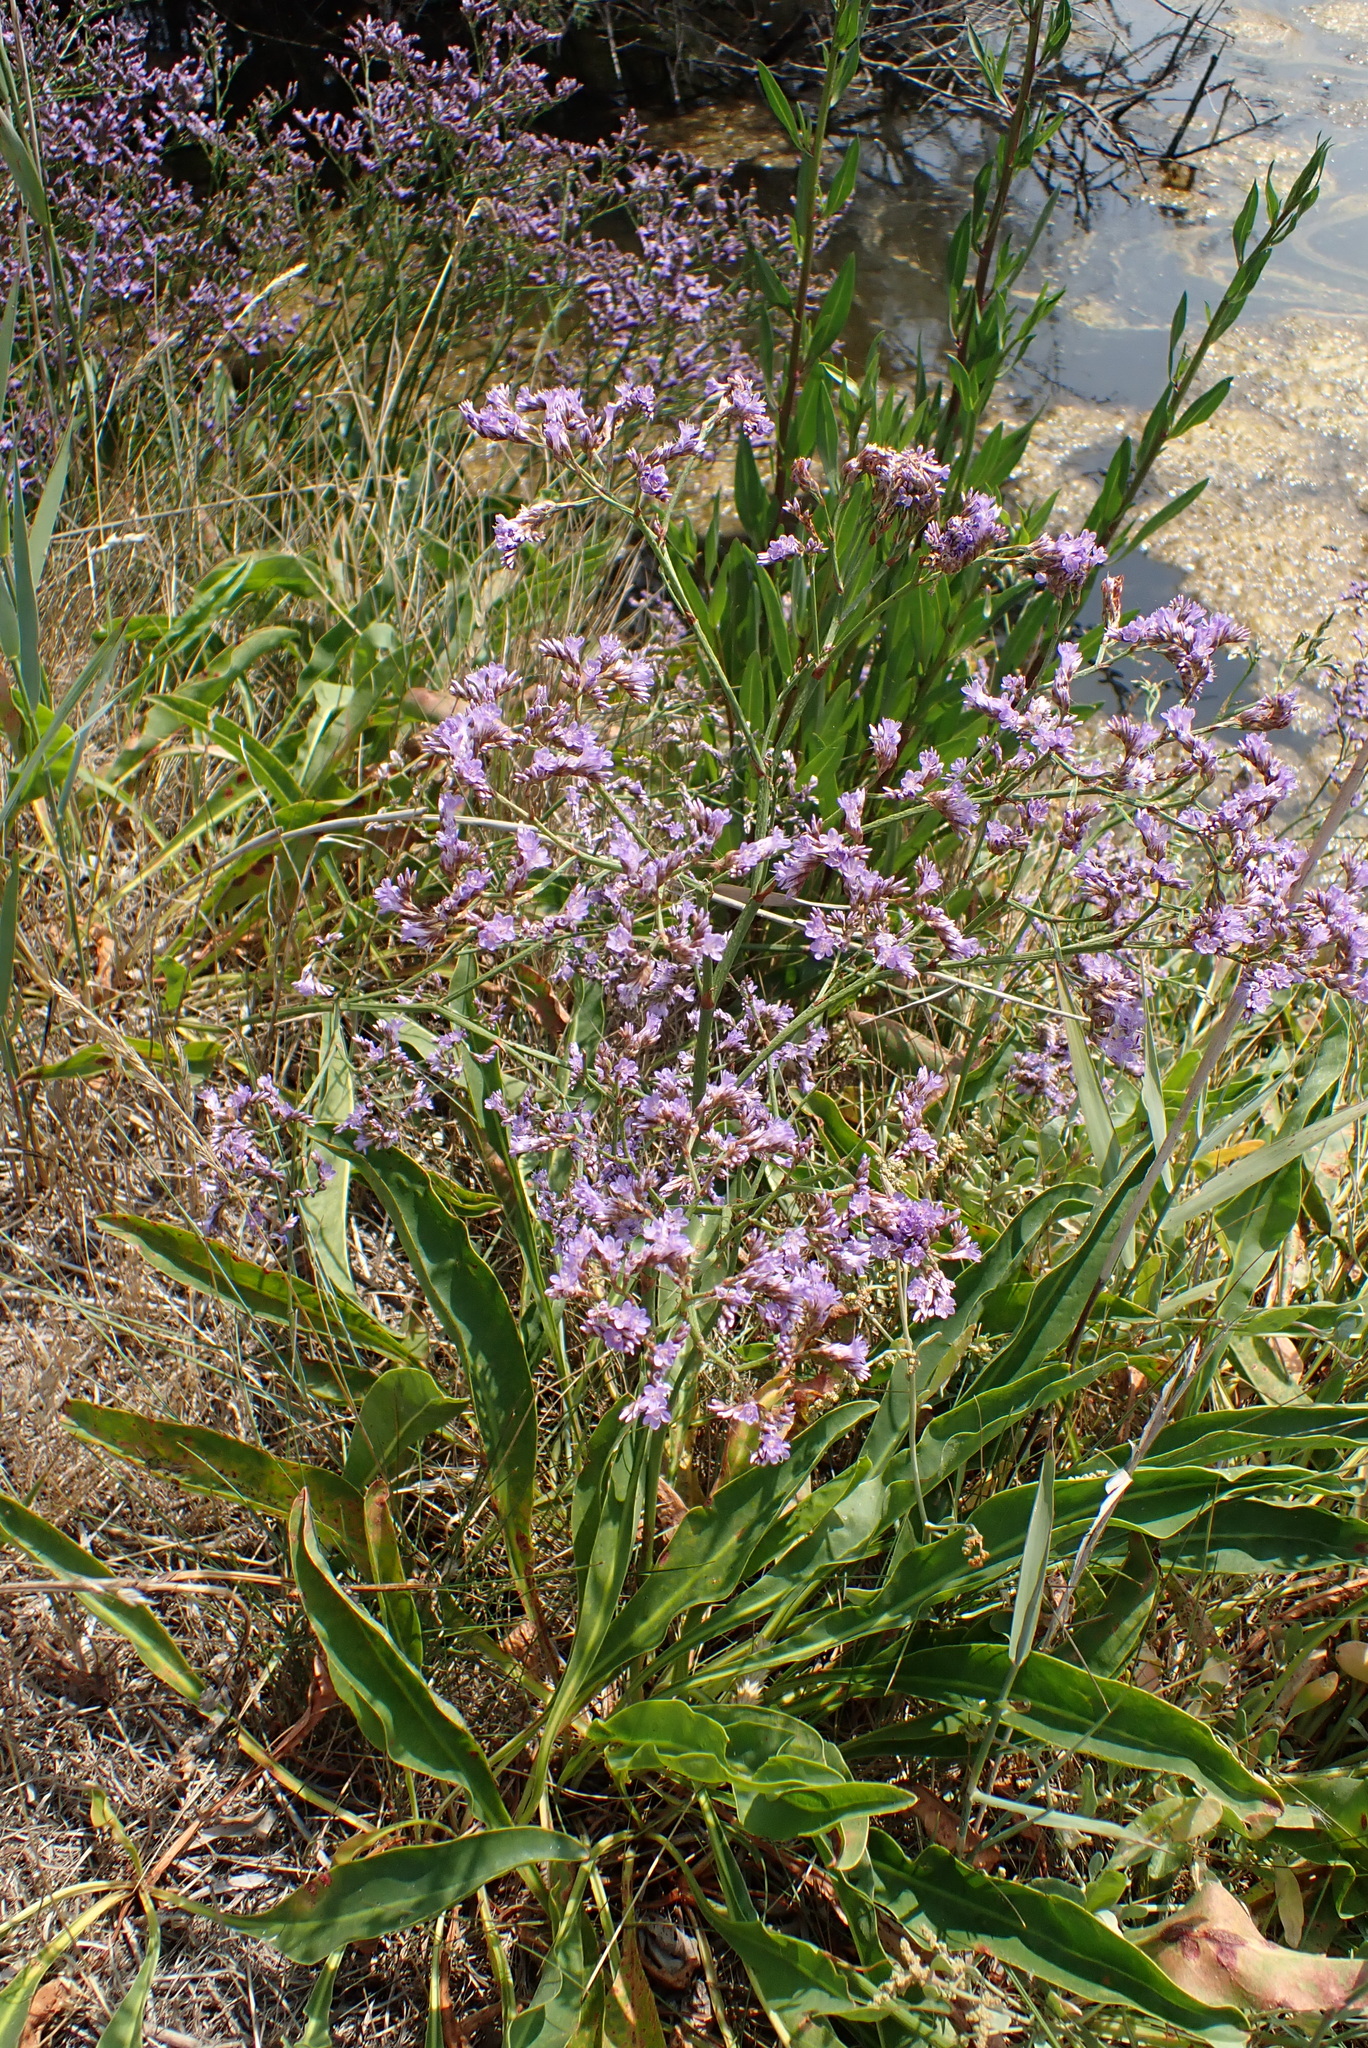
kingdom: Plantae
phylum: Tracheophyta
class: Magnoliopsida
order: Caryophyllales
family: Plumbaginaceae
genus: Limonium
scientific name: Limonium vulgare
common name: Common sea-lavender
